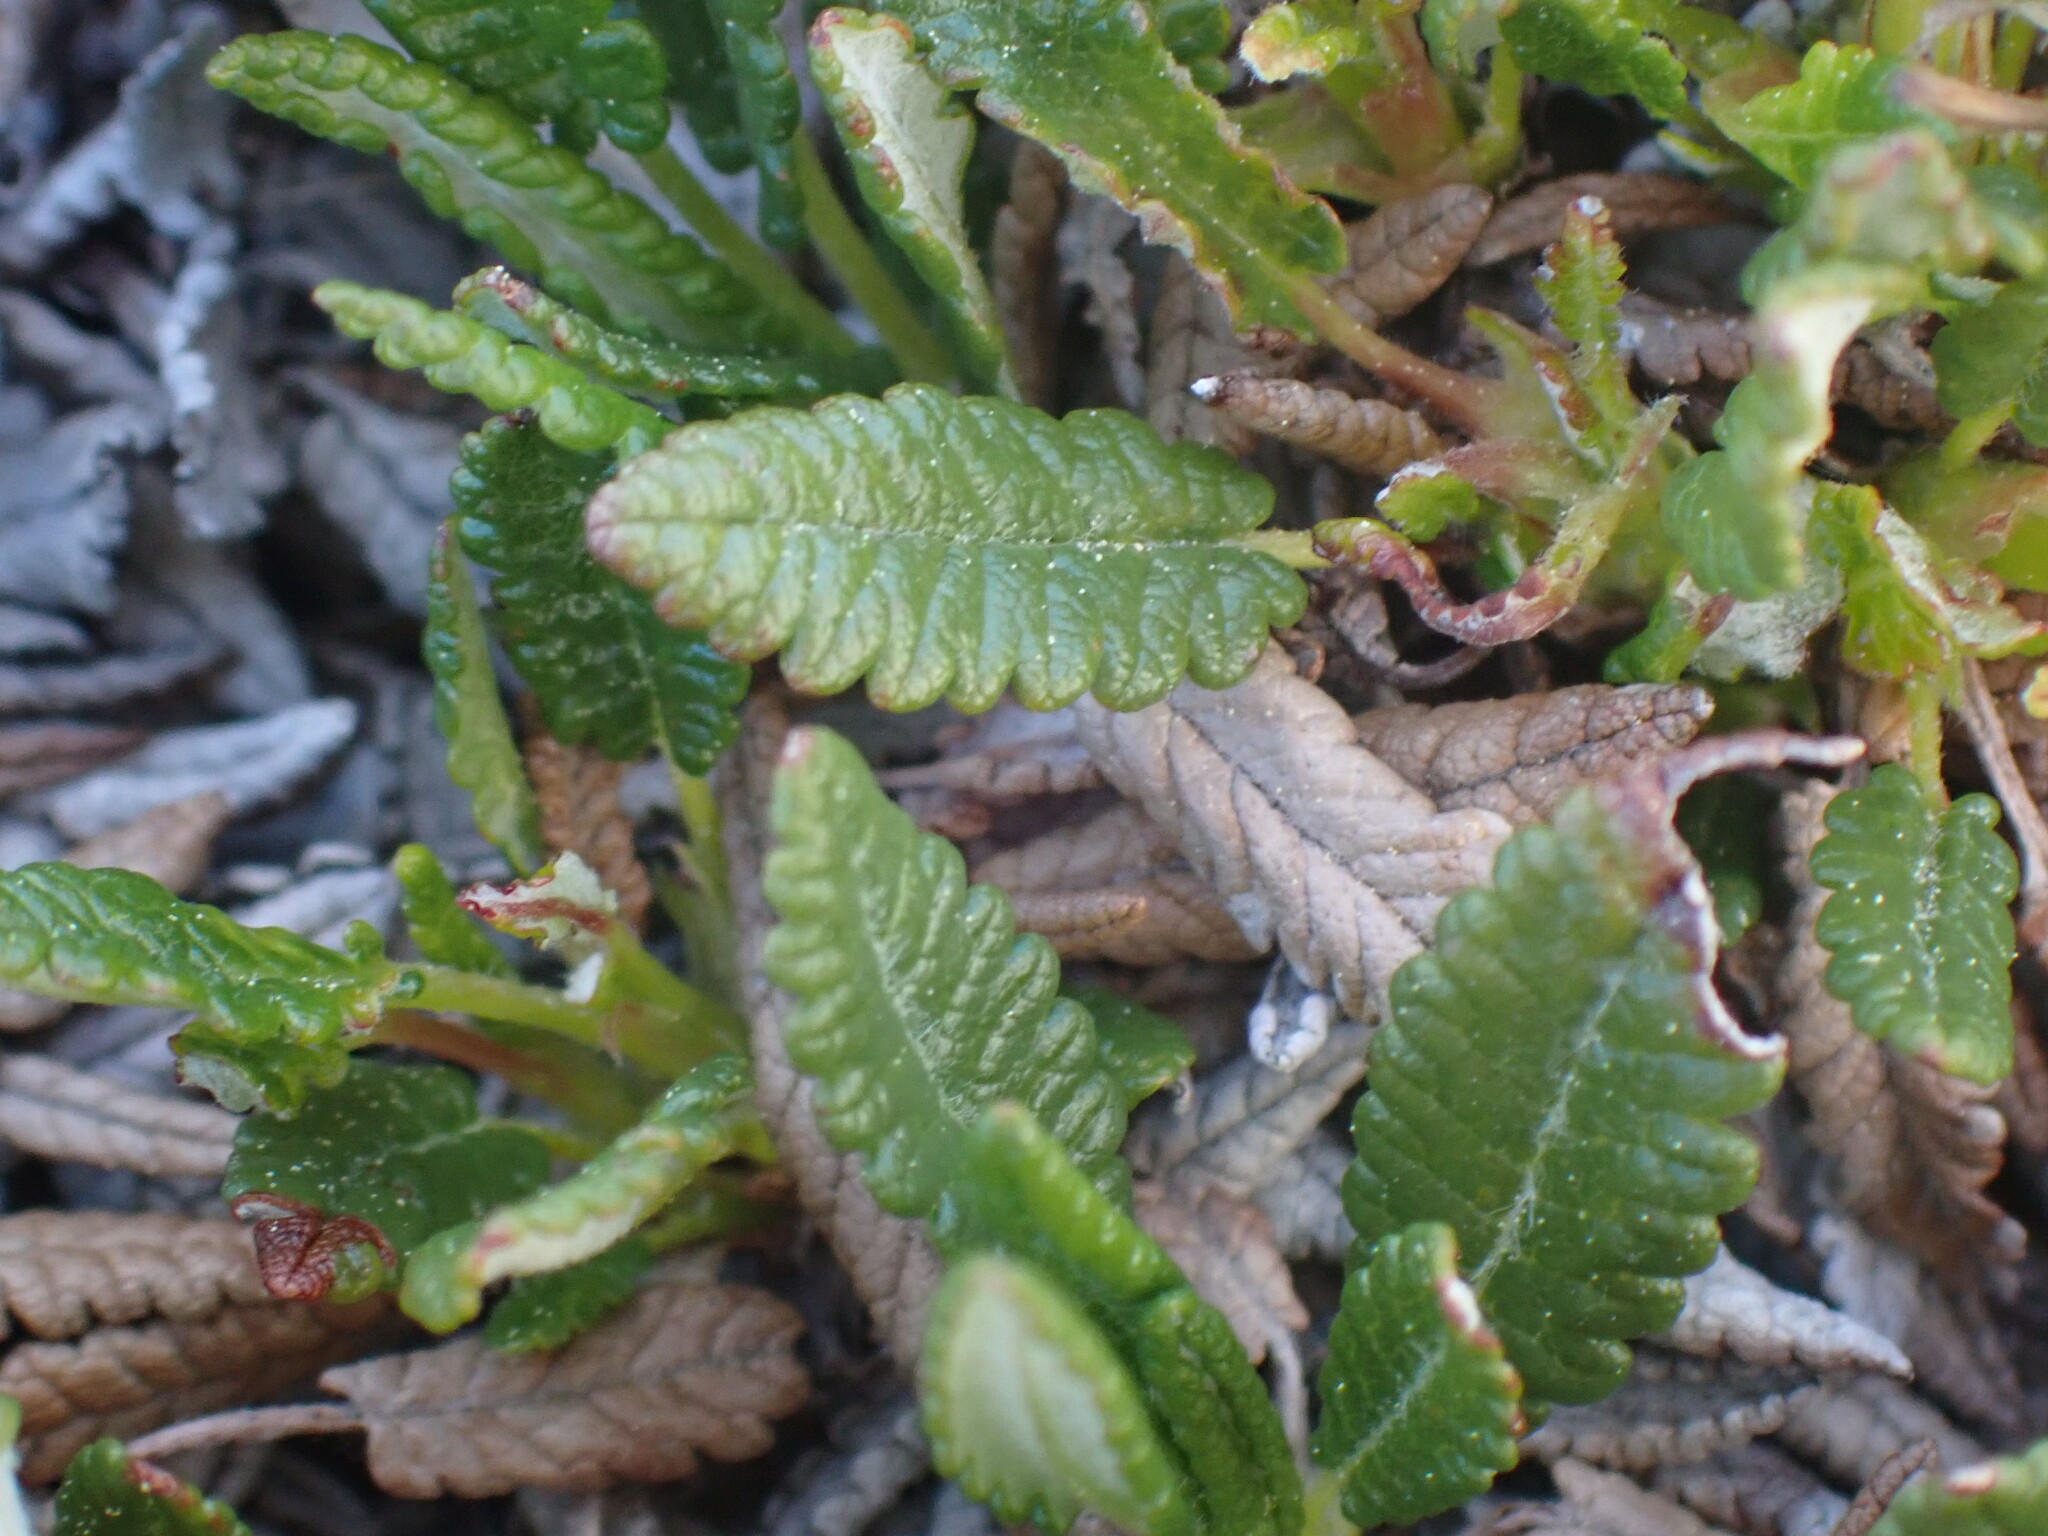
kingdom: Plantae
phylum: Tracheophyta
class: Magnoliopsida
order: Rosales
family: Rosaceae
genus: Dryas
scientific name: Dryas octopetala
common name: Eight-petal mountain-avens
